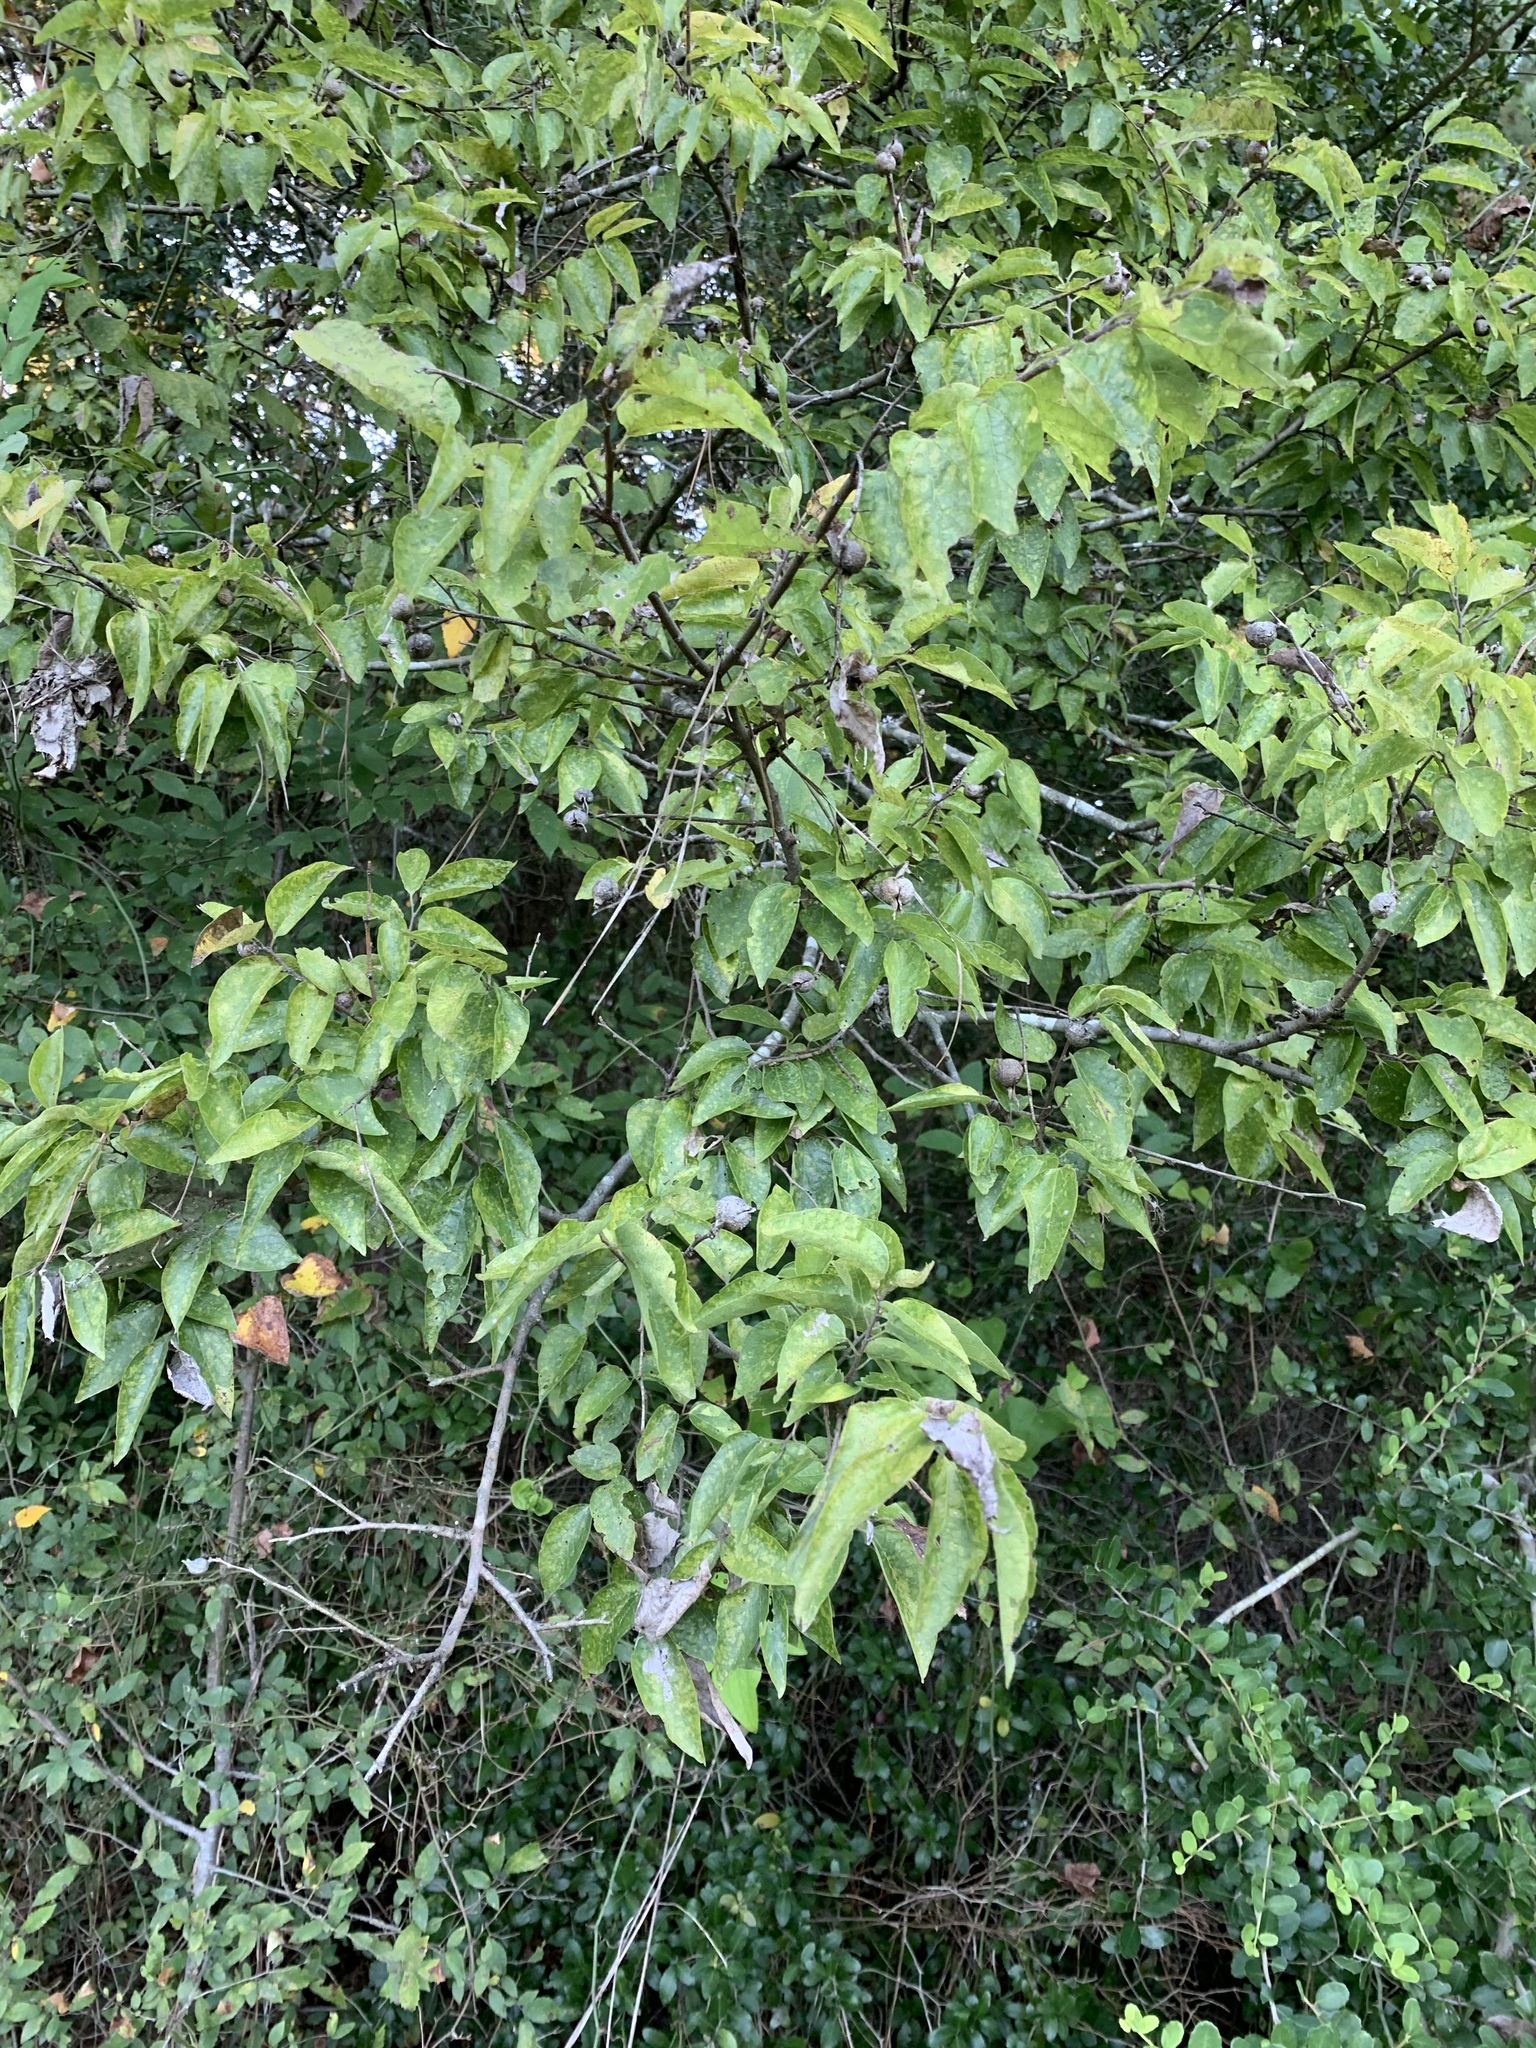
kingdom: Plantae
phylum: Tracheophyta
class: Magnoliopsida
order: Rosales
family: Cannabaceae
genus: Celtis
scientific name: Celtis laevigata
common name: Sugarberry
